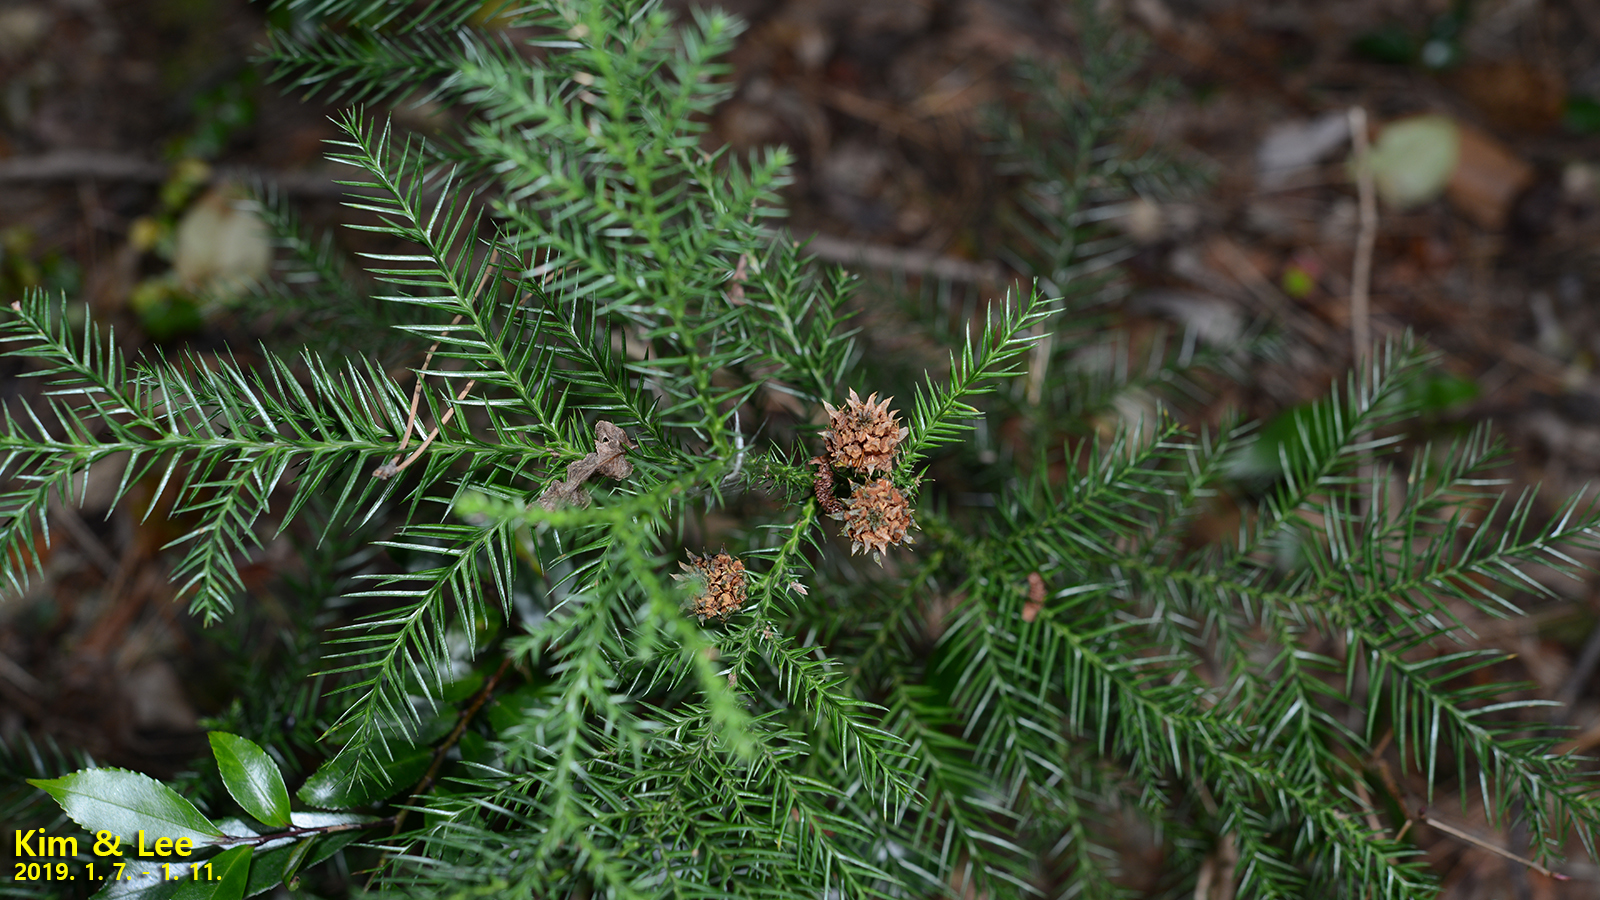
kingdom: Plantae
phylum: Tracheophyta
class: Pinopsida
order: Pinales
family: Cupressaceae
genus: Cryptomeria
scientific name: Cryptomeria japonica
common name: Japanese cedar
